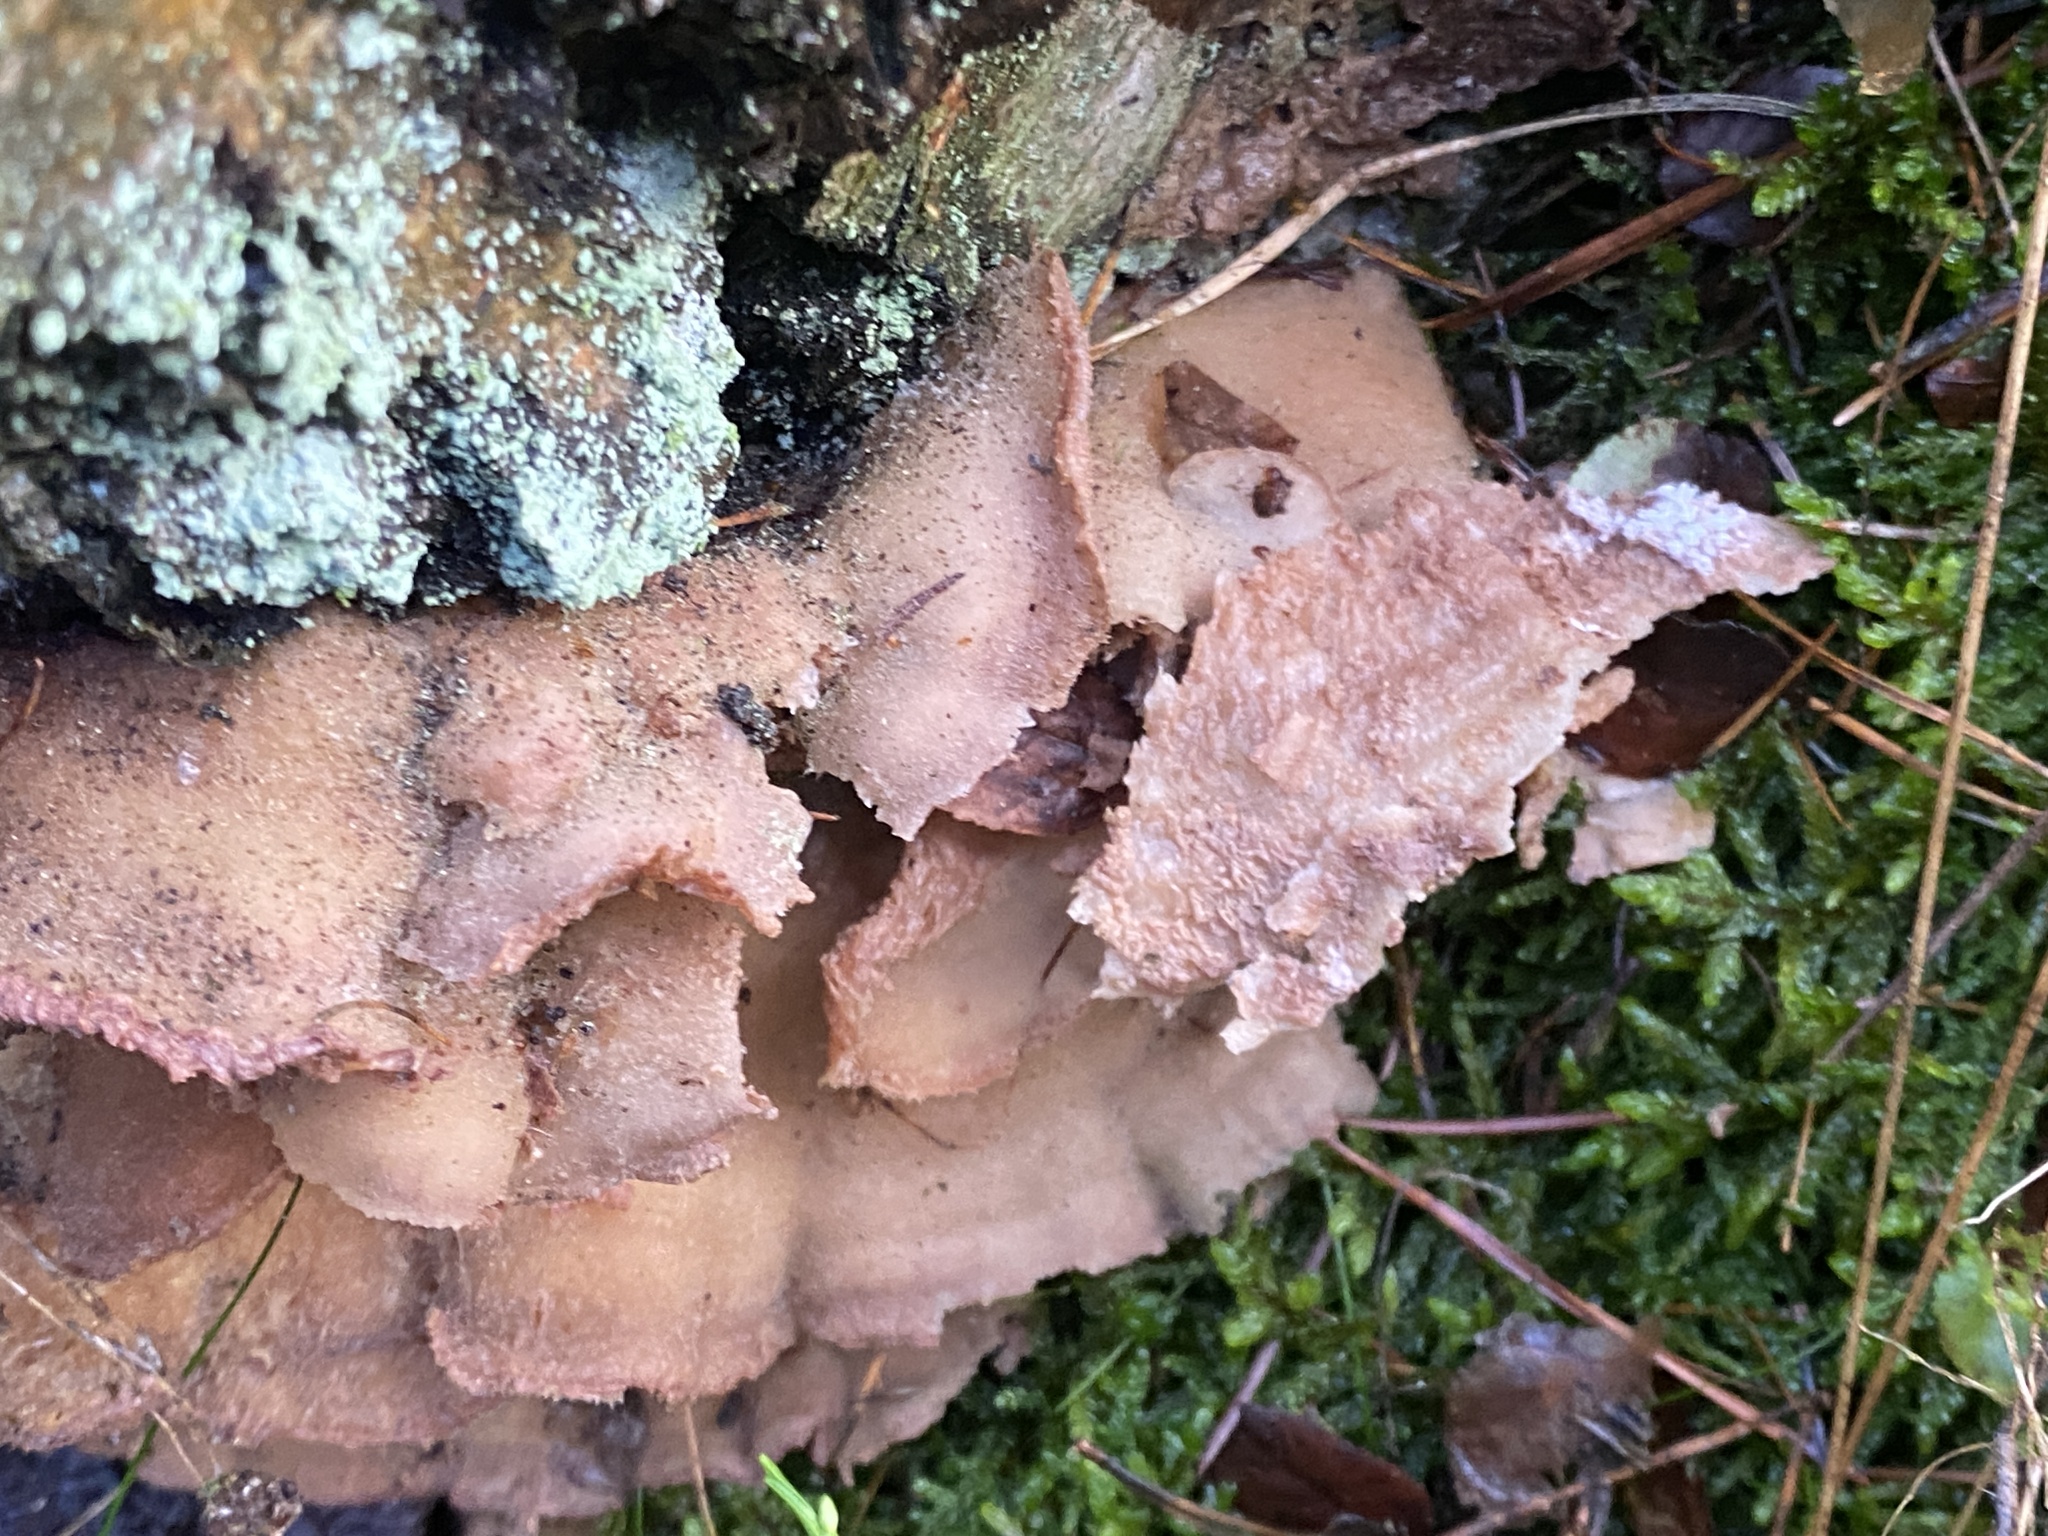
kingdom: Fungi
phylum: Basidiomycota
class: Agaricomycetes
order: Polyporales
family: Meruliaceae
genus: Phlebia
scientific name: Phlebia tremellosa
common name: Jelly rot
